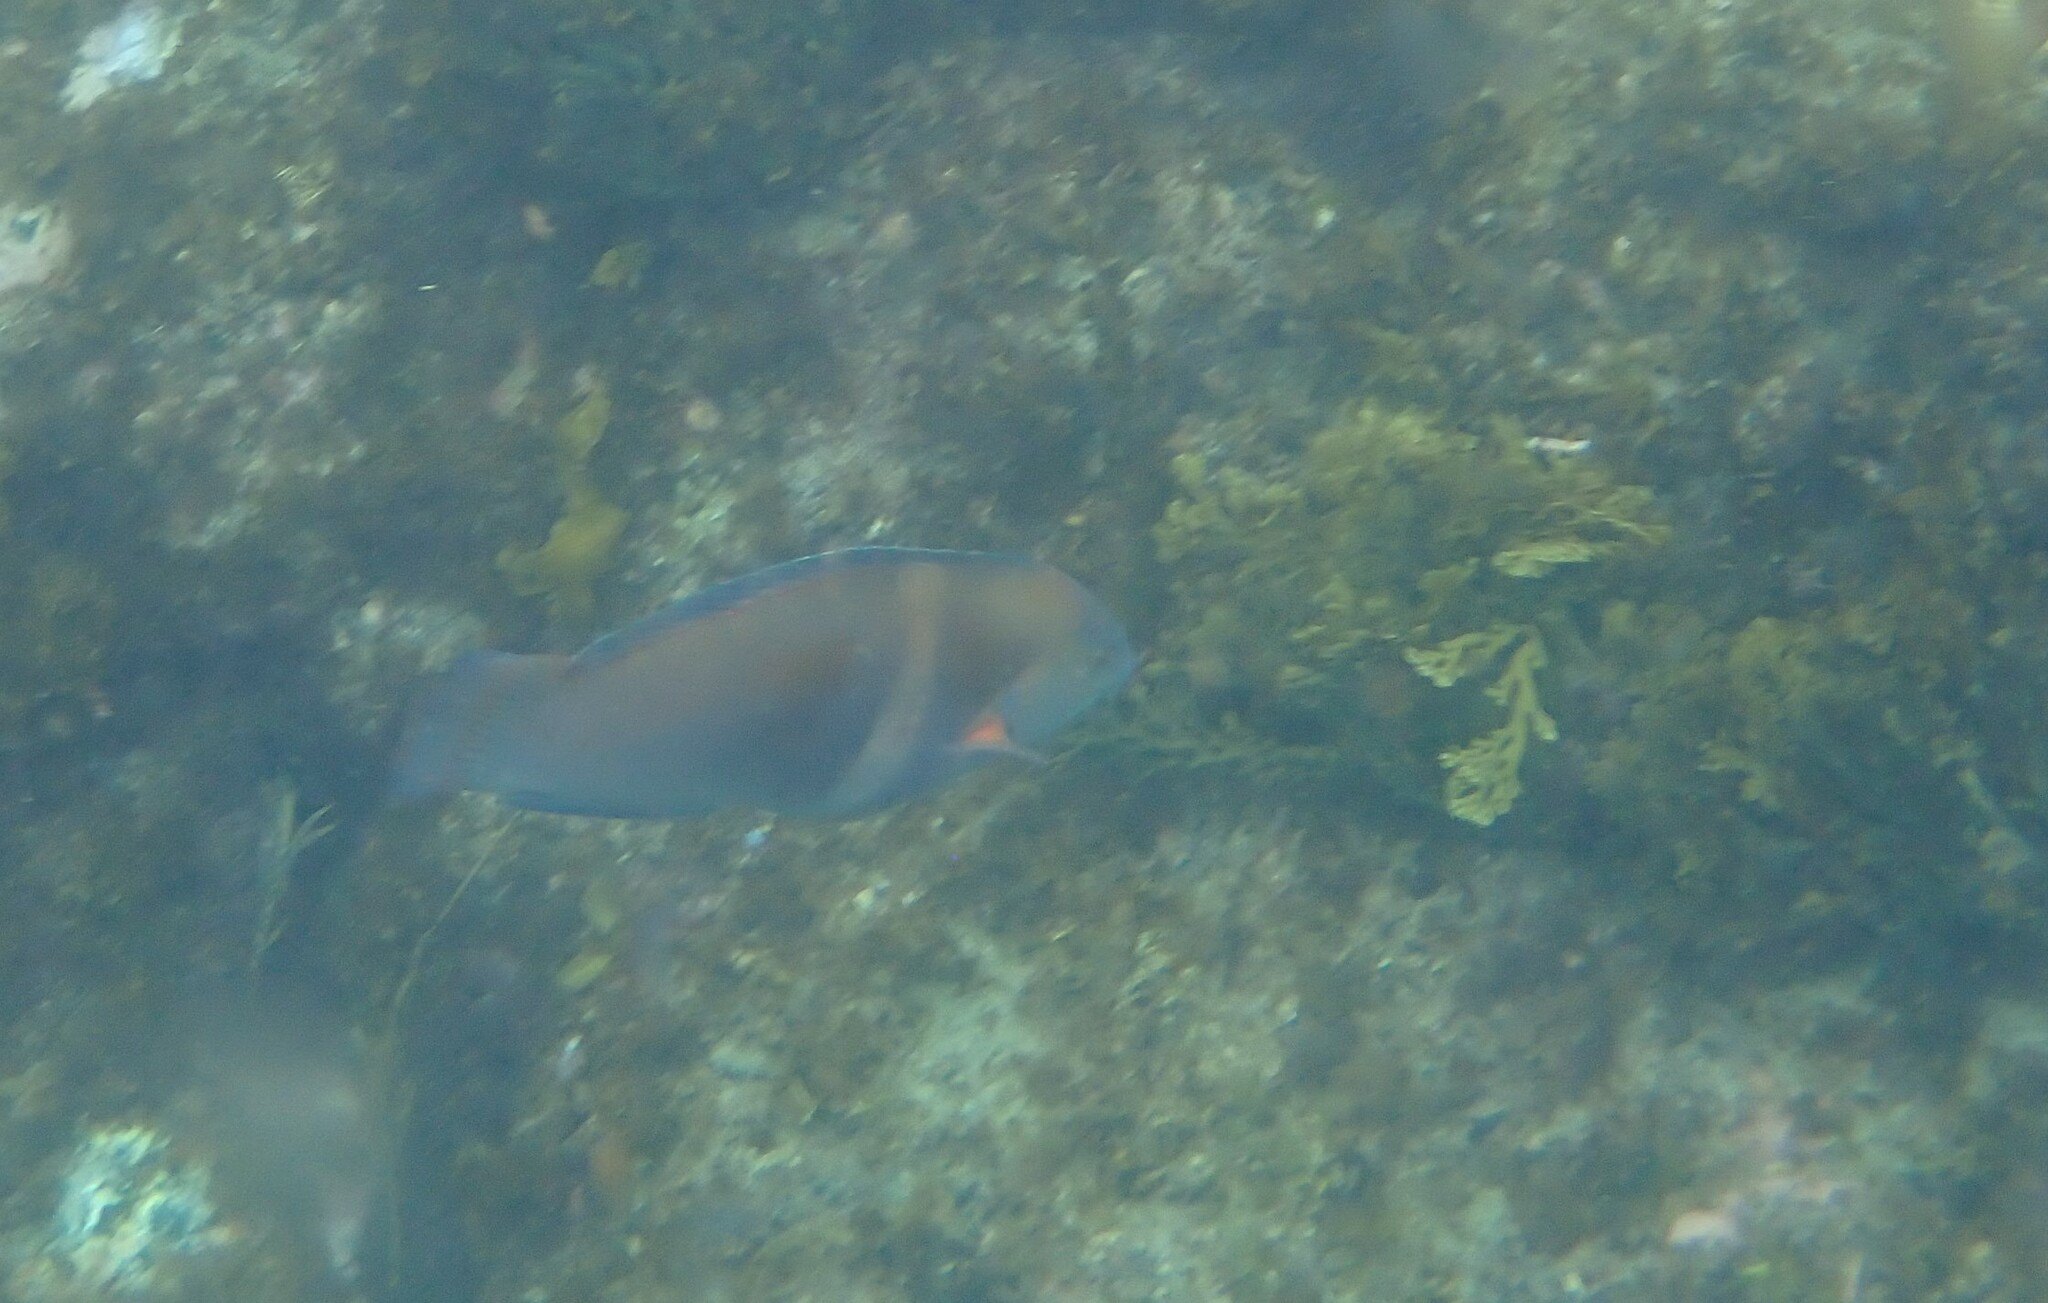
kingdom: Animalia
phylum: Chordata
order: Perciformes
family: Labridae
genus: Coris
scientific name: Coris sandeyeri
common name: Sandager's wrasse
